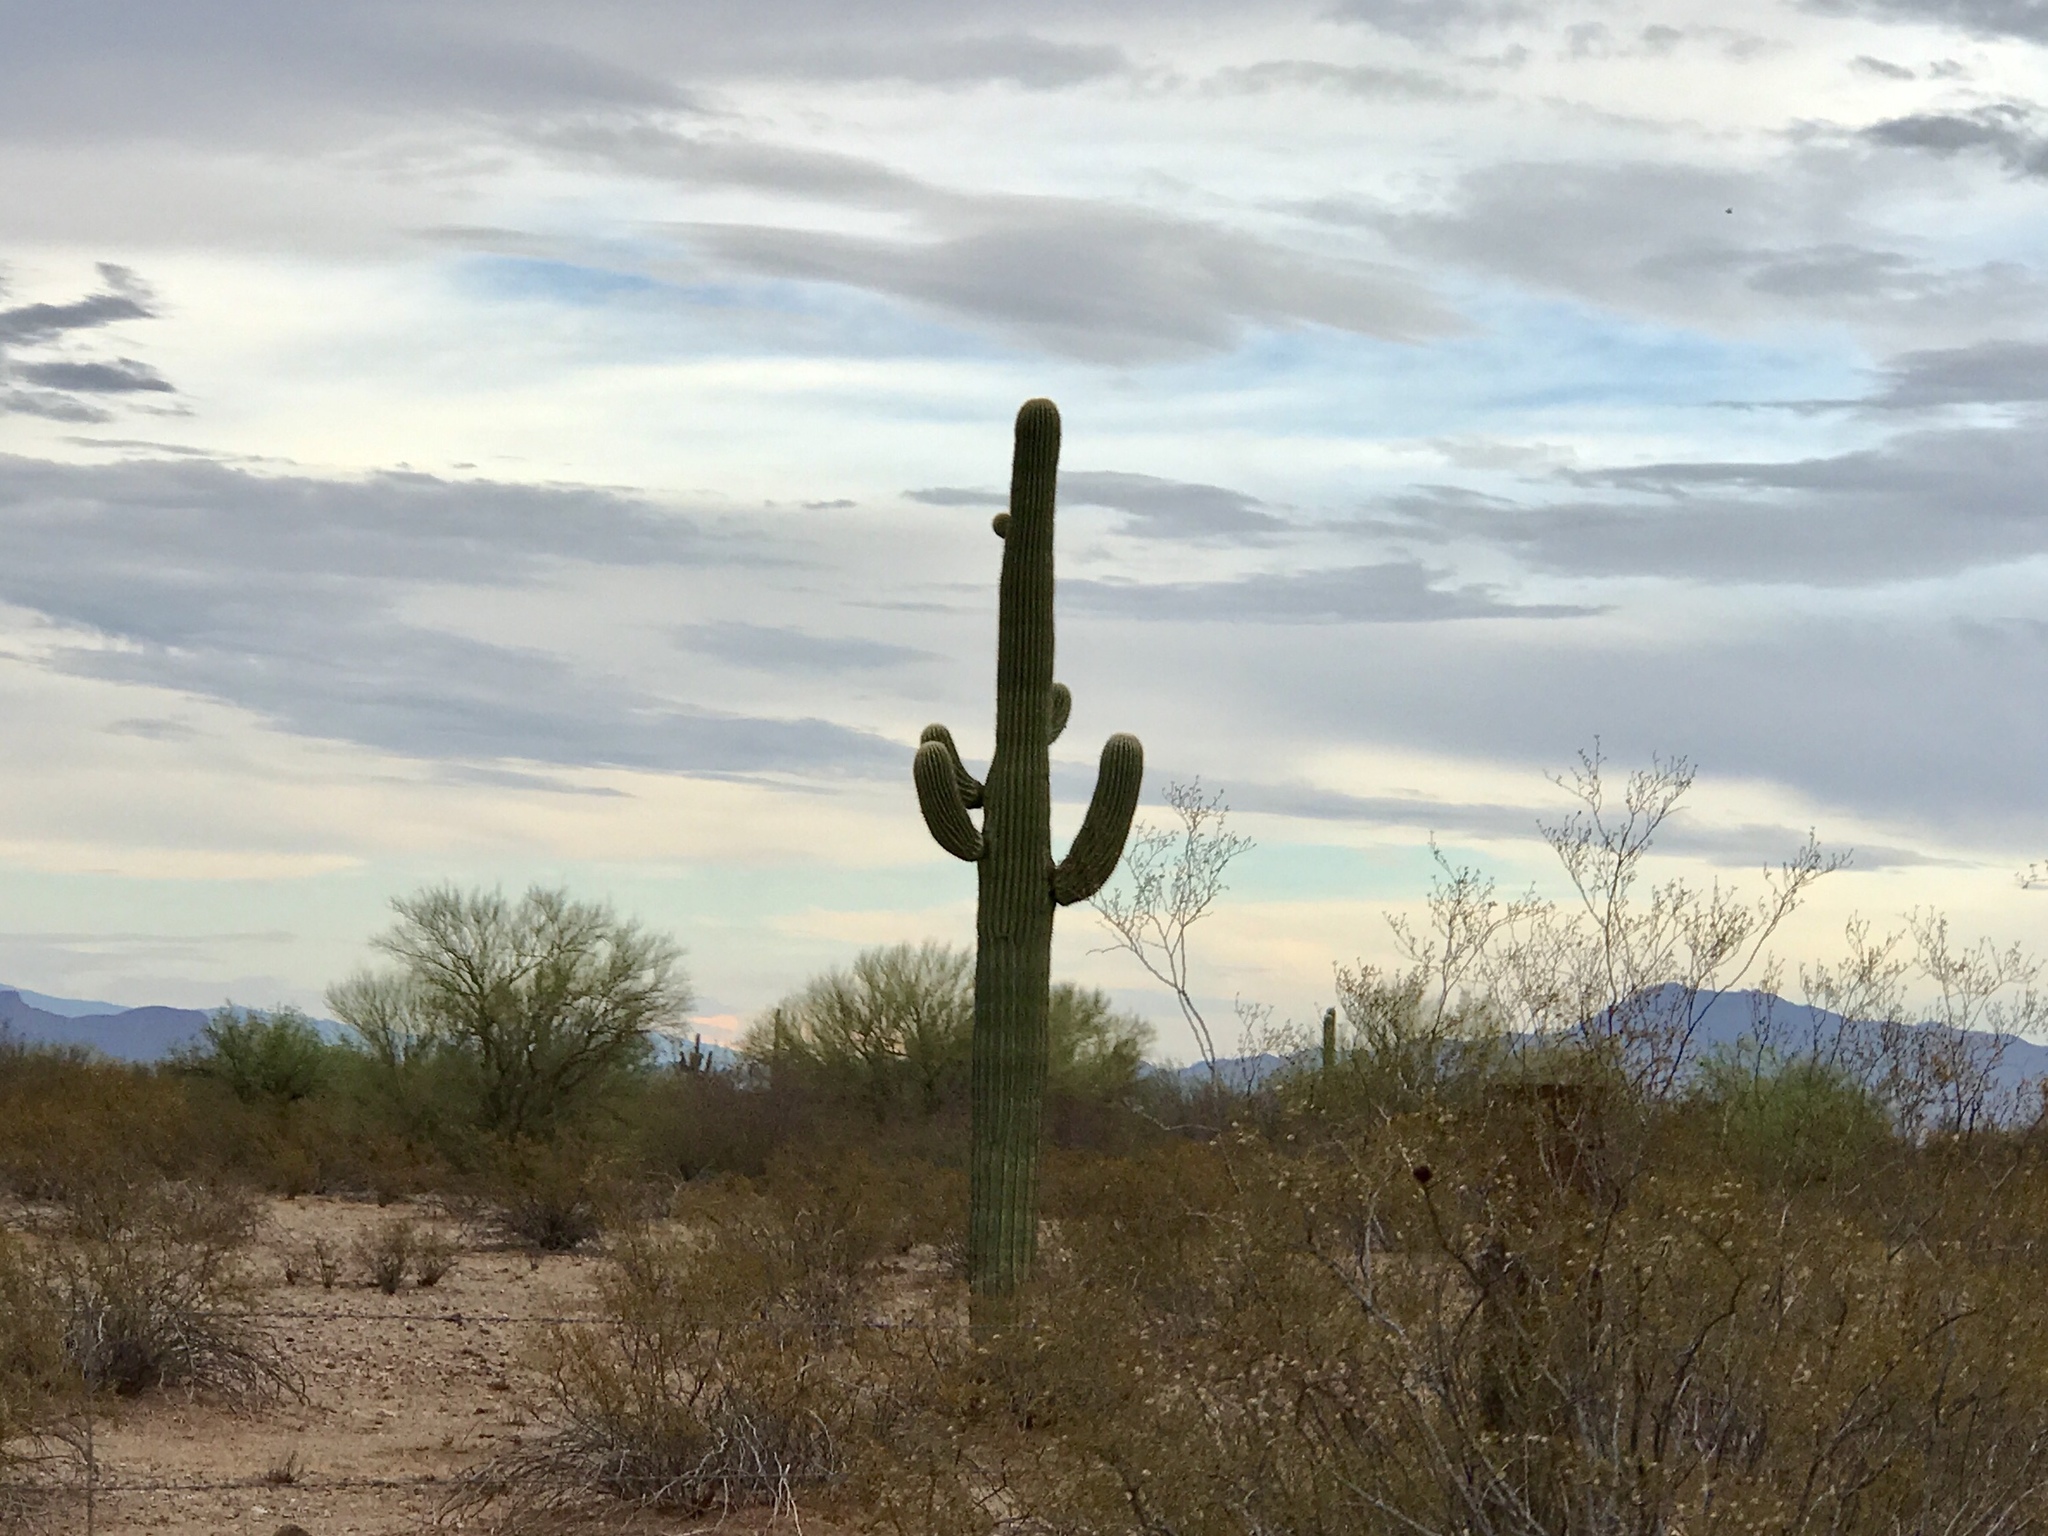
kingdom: Plantae
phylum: Tracheophyta
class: Magnoliopsida
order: Caryophyllales
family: Cactaceae
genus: Carnegiea
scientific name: Carnegiea gigantea
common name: Saguaro
